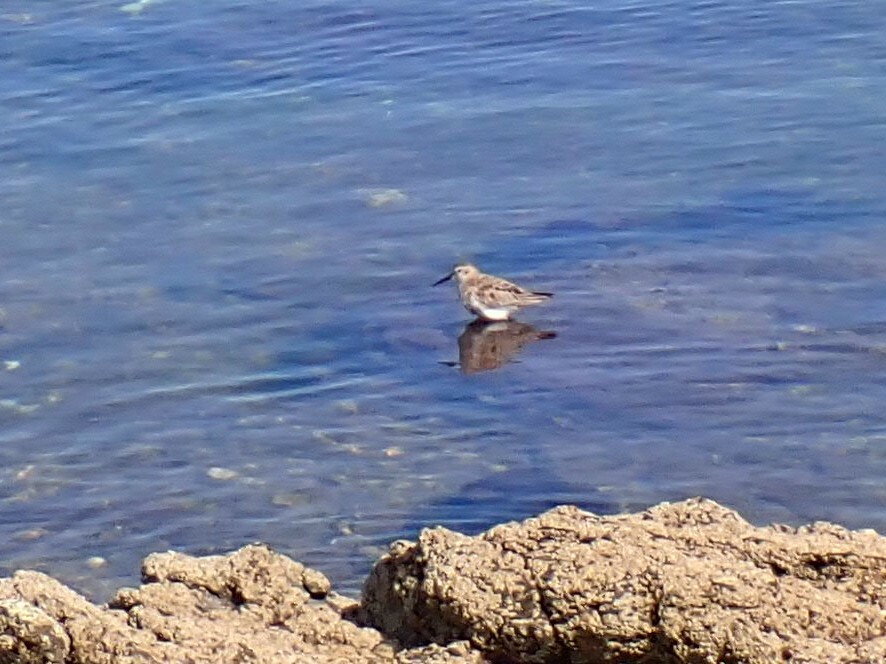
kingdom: Animalia
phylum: Chordata
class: Aves
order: Charadriiformes
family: Scolopacidae
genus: Calidris
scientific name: Calidris alpina
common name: Dunlin
